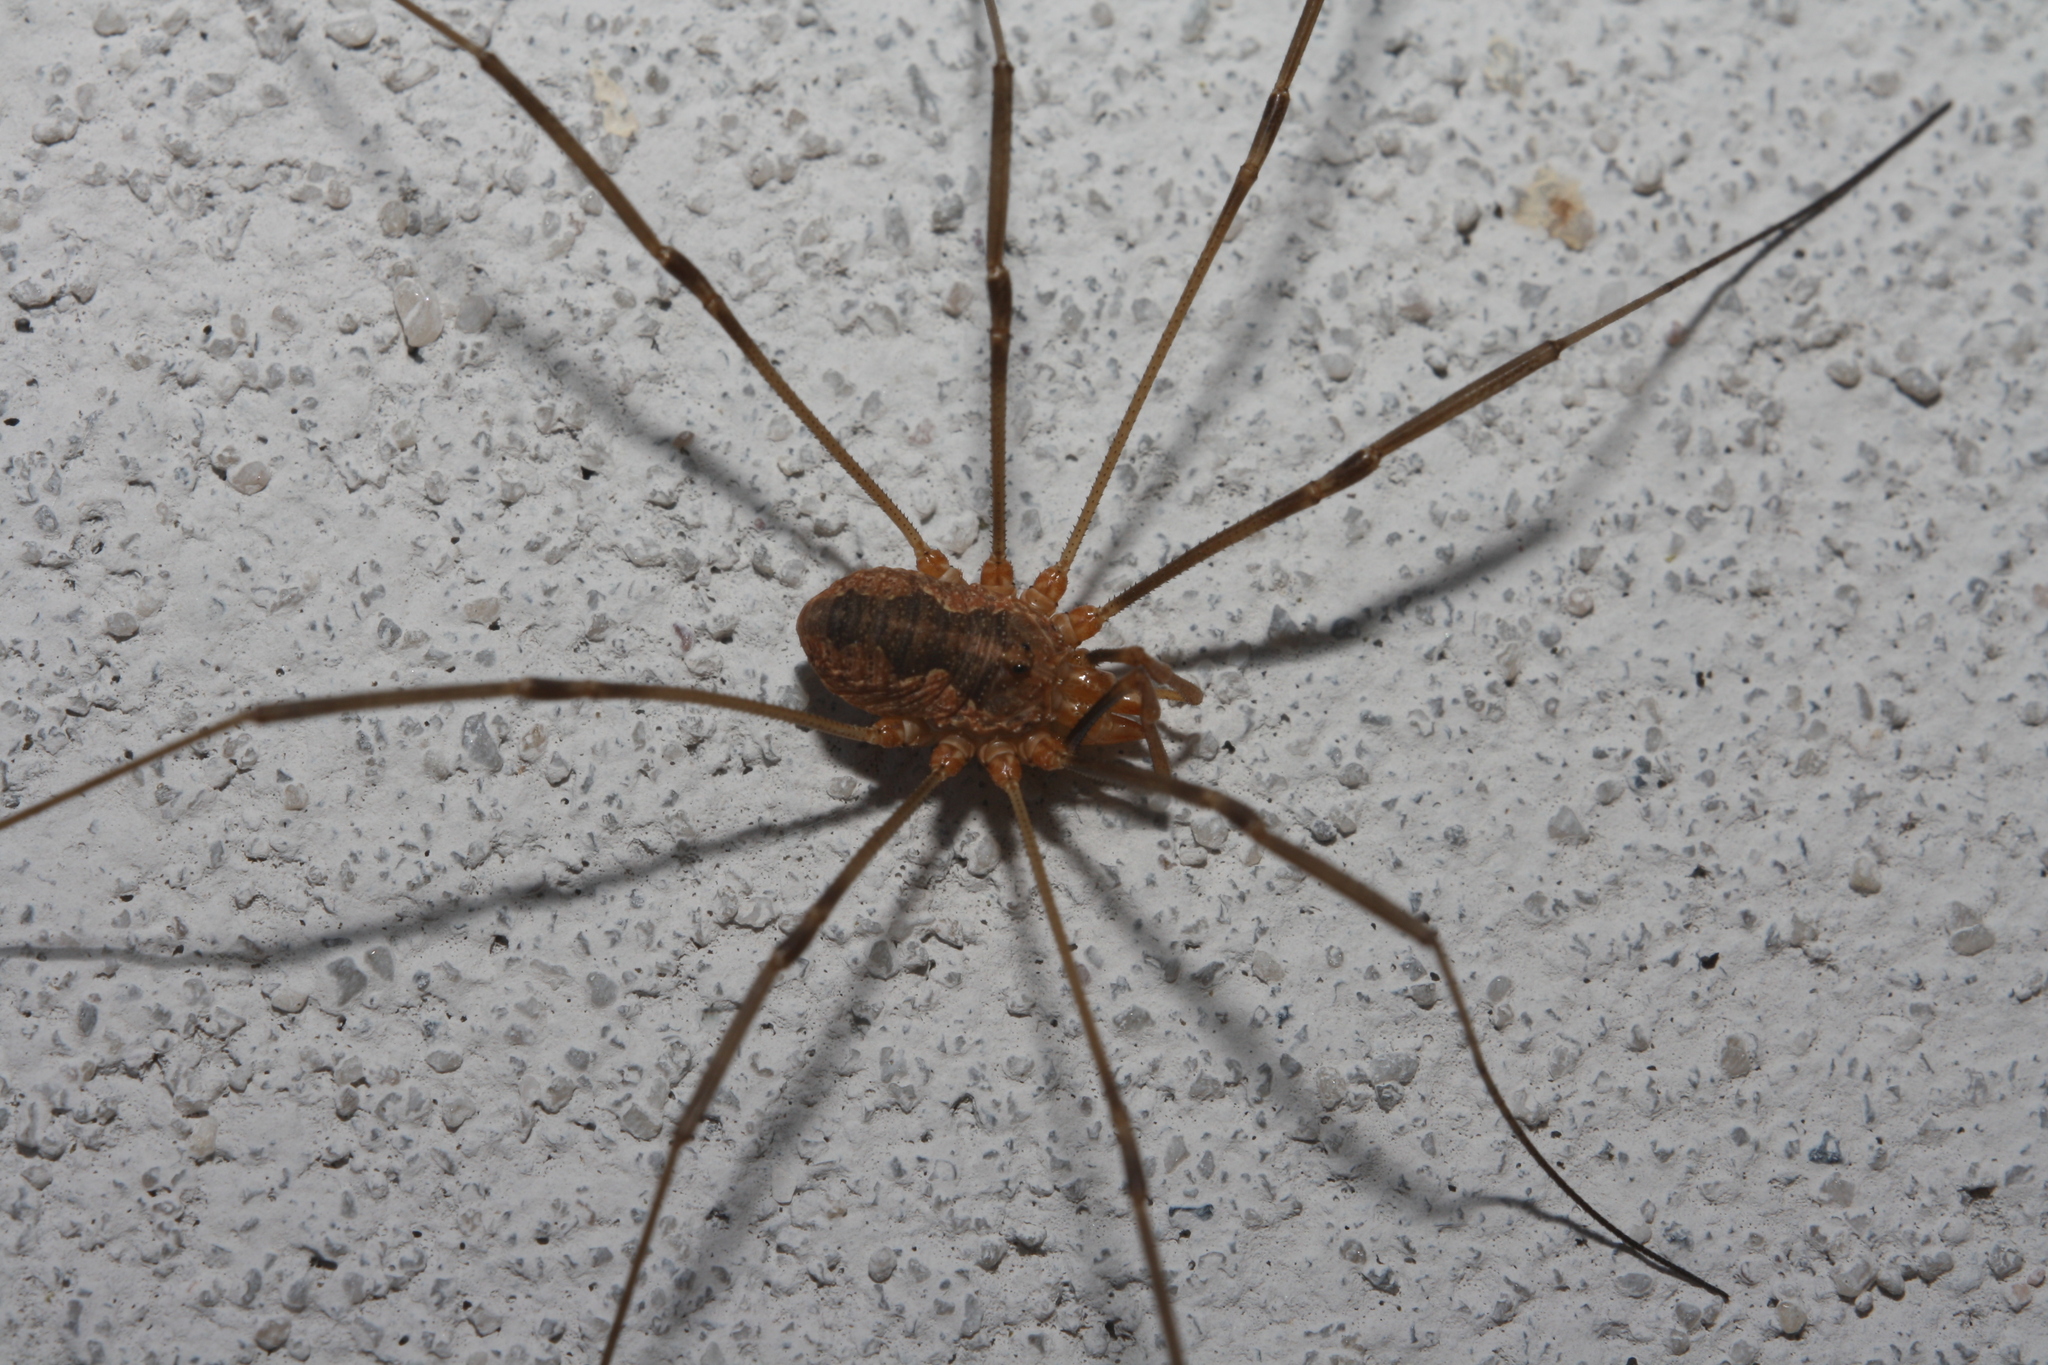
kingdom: Animalia
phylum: Arthropoda
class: Arachnida
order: Opiliones
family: Phalangiidae
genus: Phalangium
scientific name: Phalangium opilio
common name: Daddy longleg
